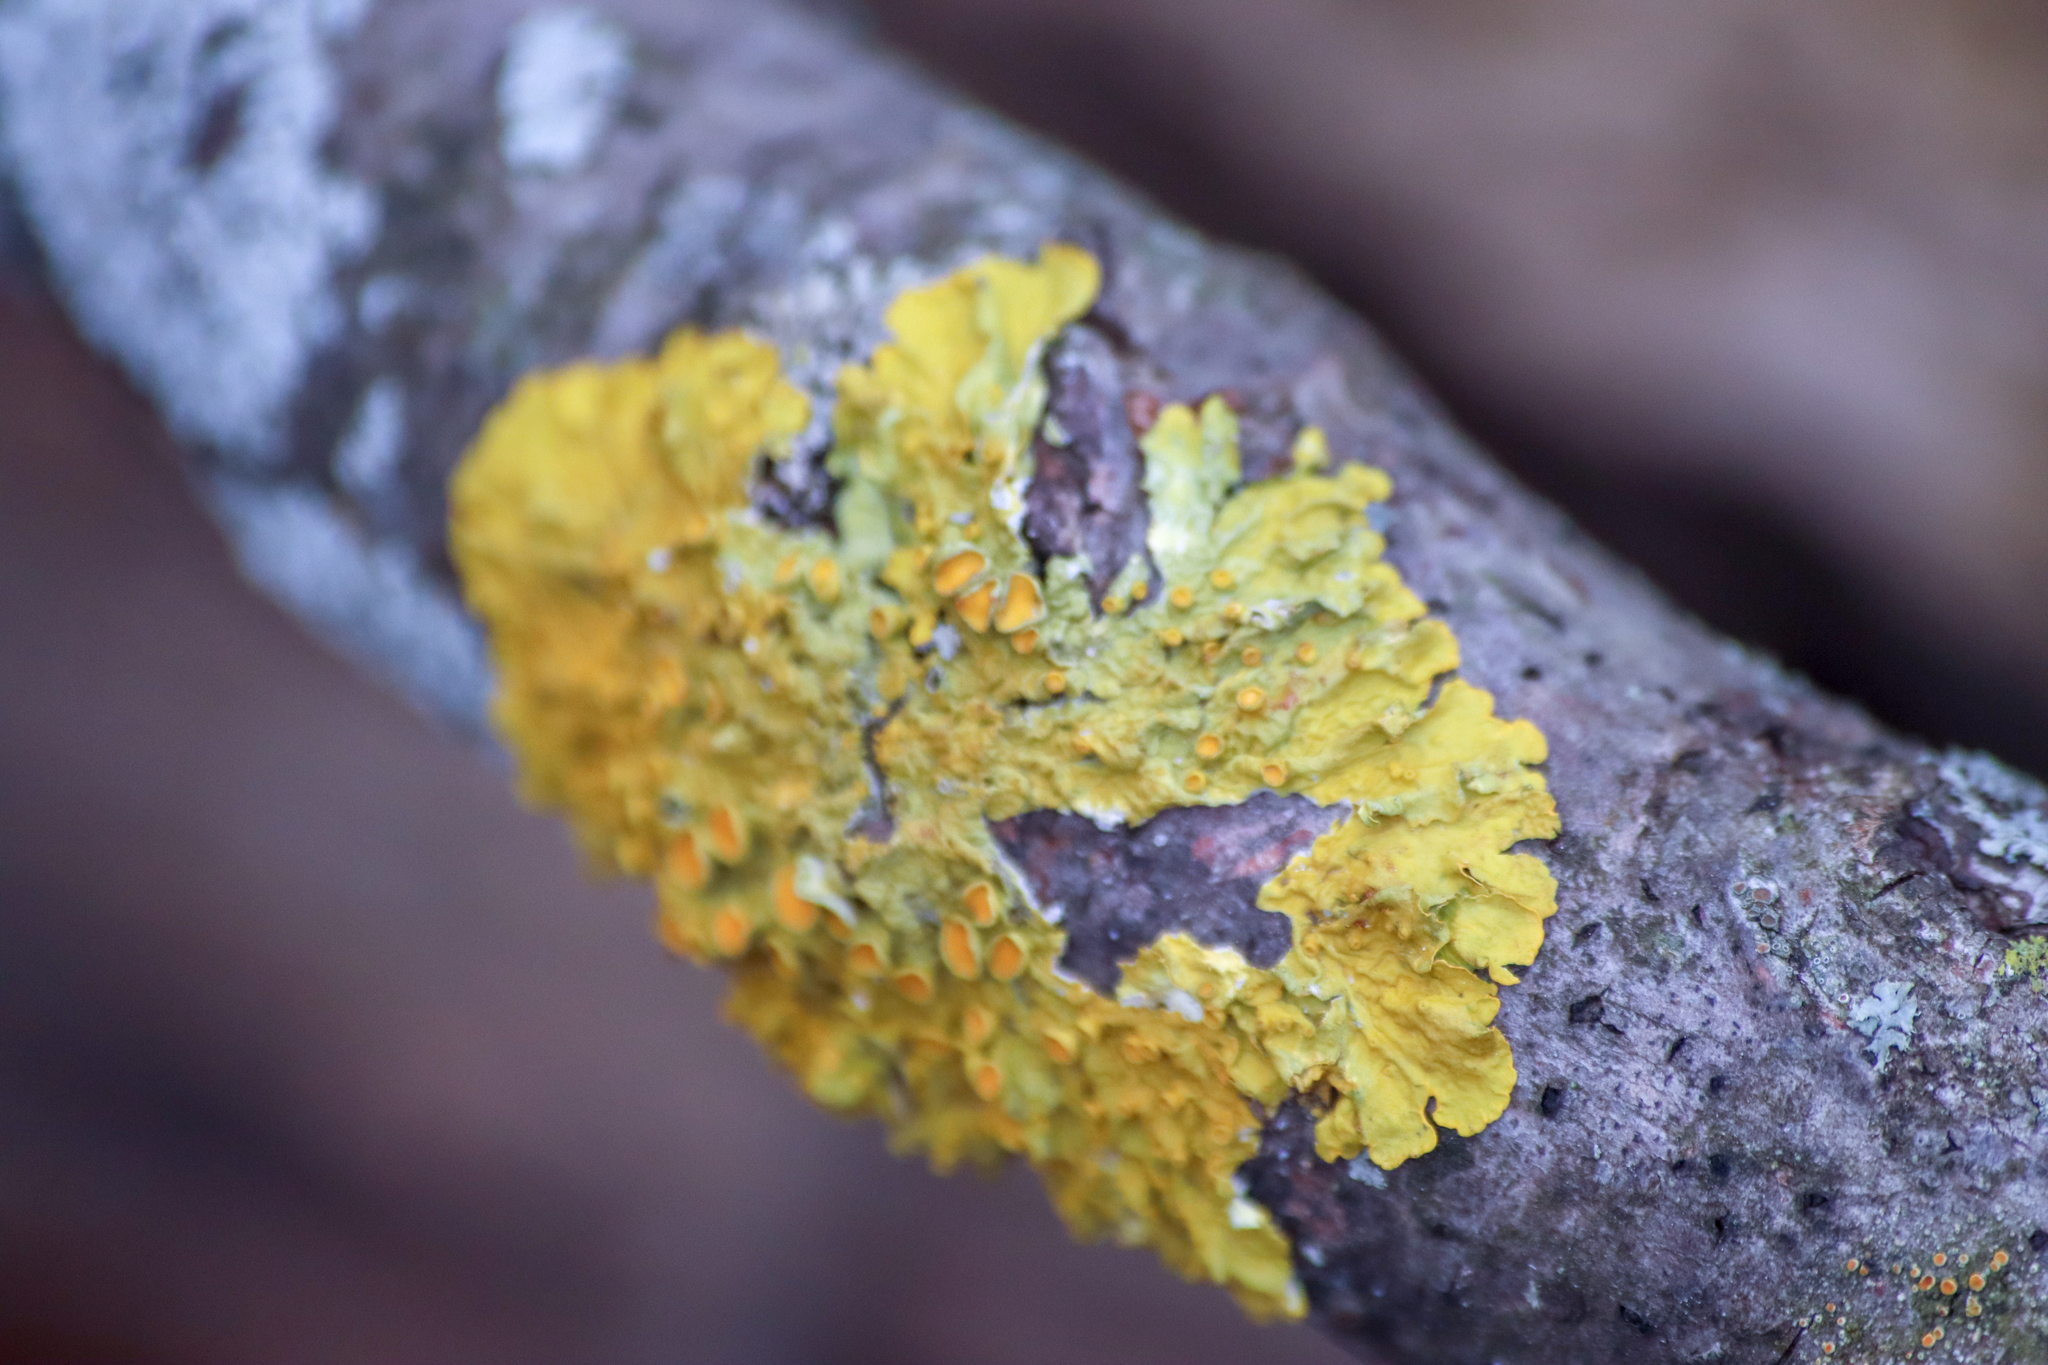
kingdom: Fungi
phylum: Ascomycota
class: Lecanoromycetes
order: Teloschistales
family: Teloschistaceae
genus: Xanthoria
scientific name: Xanthoria parietina
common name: Common orange lichen
